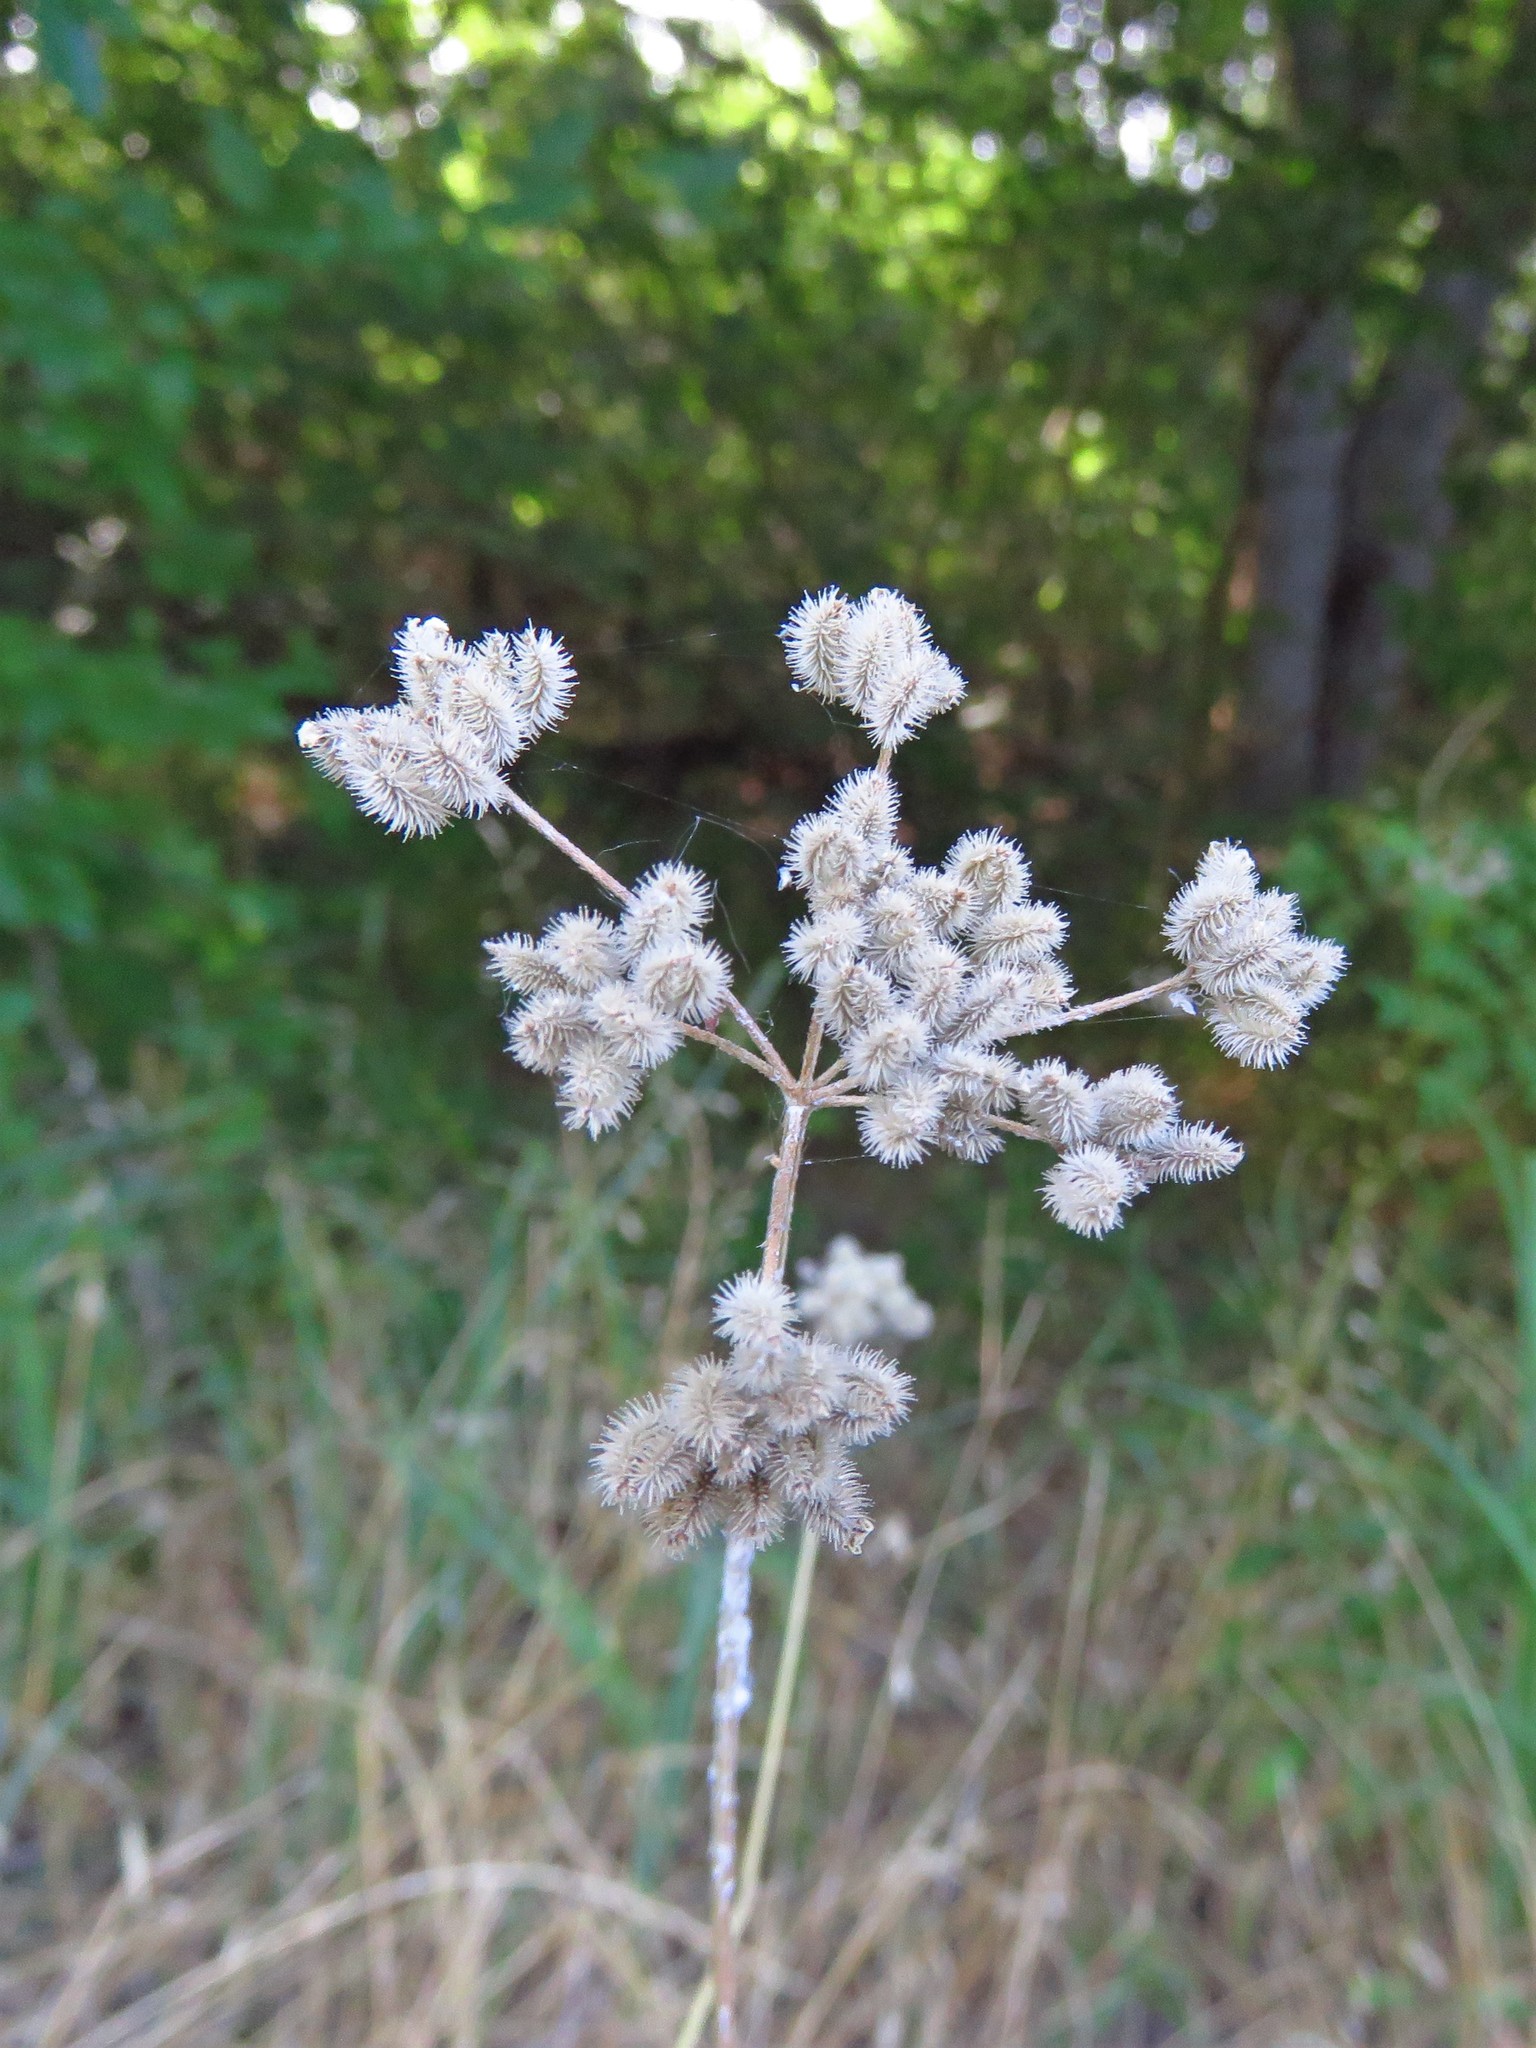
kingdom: Plantae
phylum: Tracheophyta
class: Magnoliopsida
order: Apiales
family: Apiaceae
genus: Torilis
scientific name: Torilis arvensis
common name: Spreading hedge-parsley
